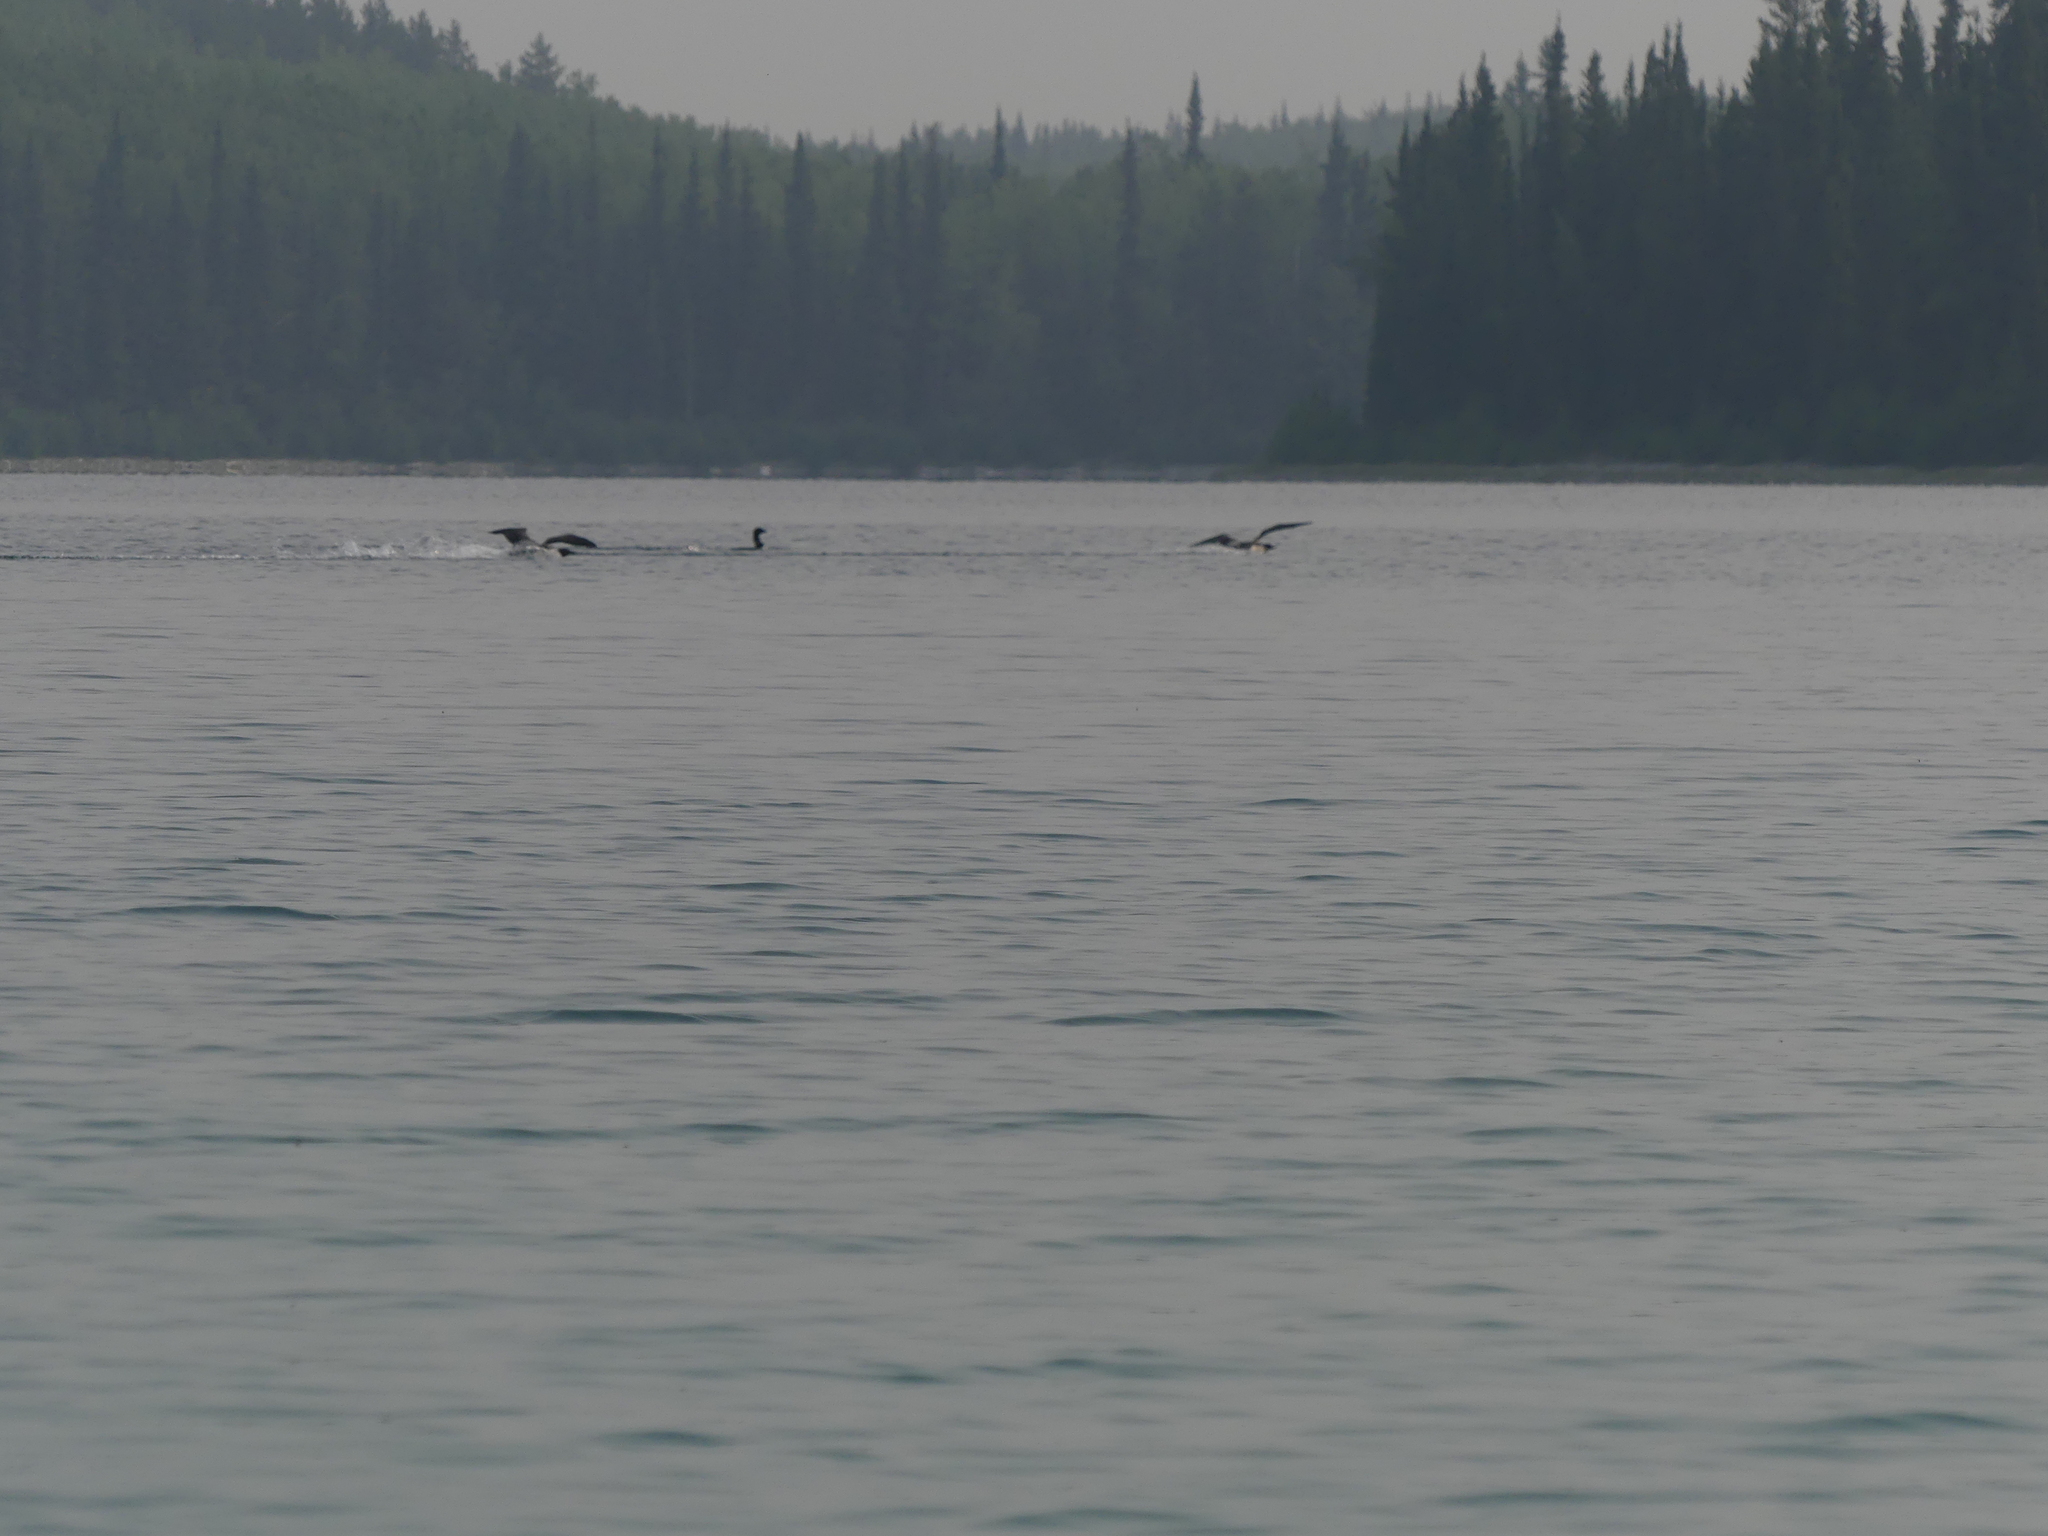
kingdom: Animalia
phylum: Chordata
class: Aves
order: Gaviiformes
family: Gaviidae
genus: Gavia
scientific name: Gavia immer
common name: Common loon
